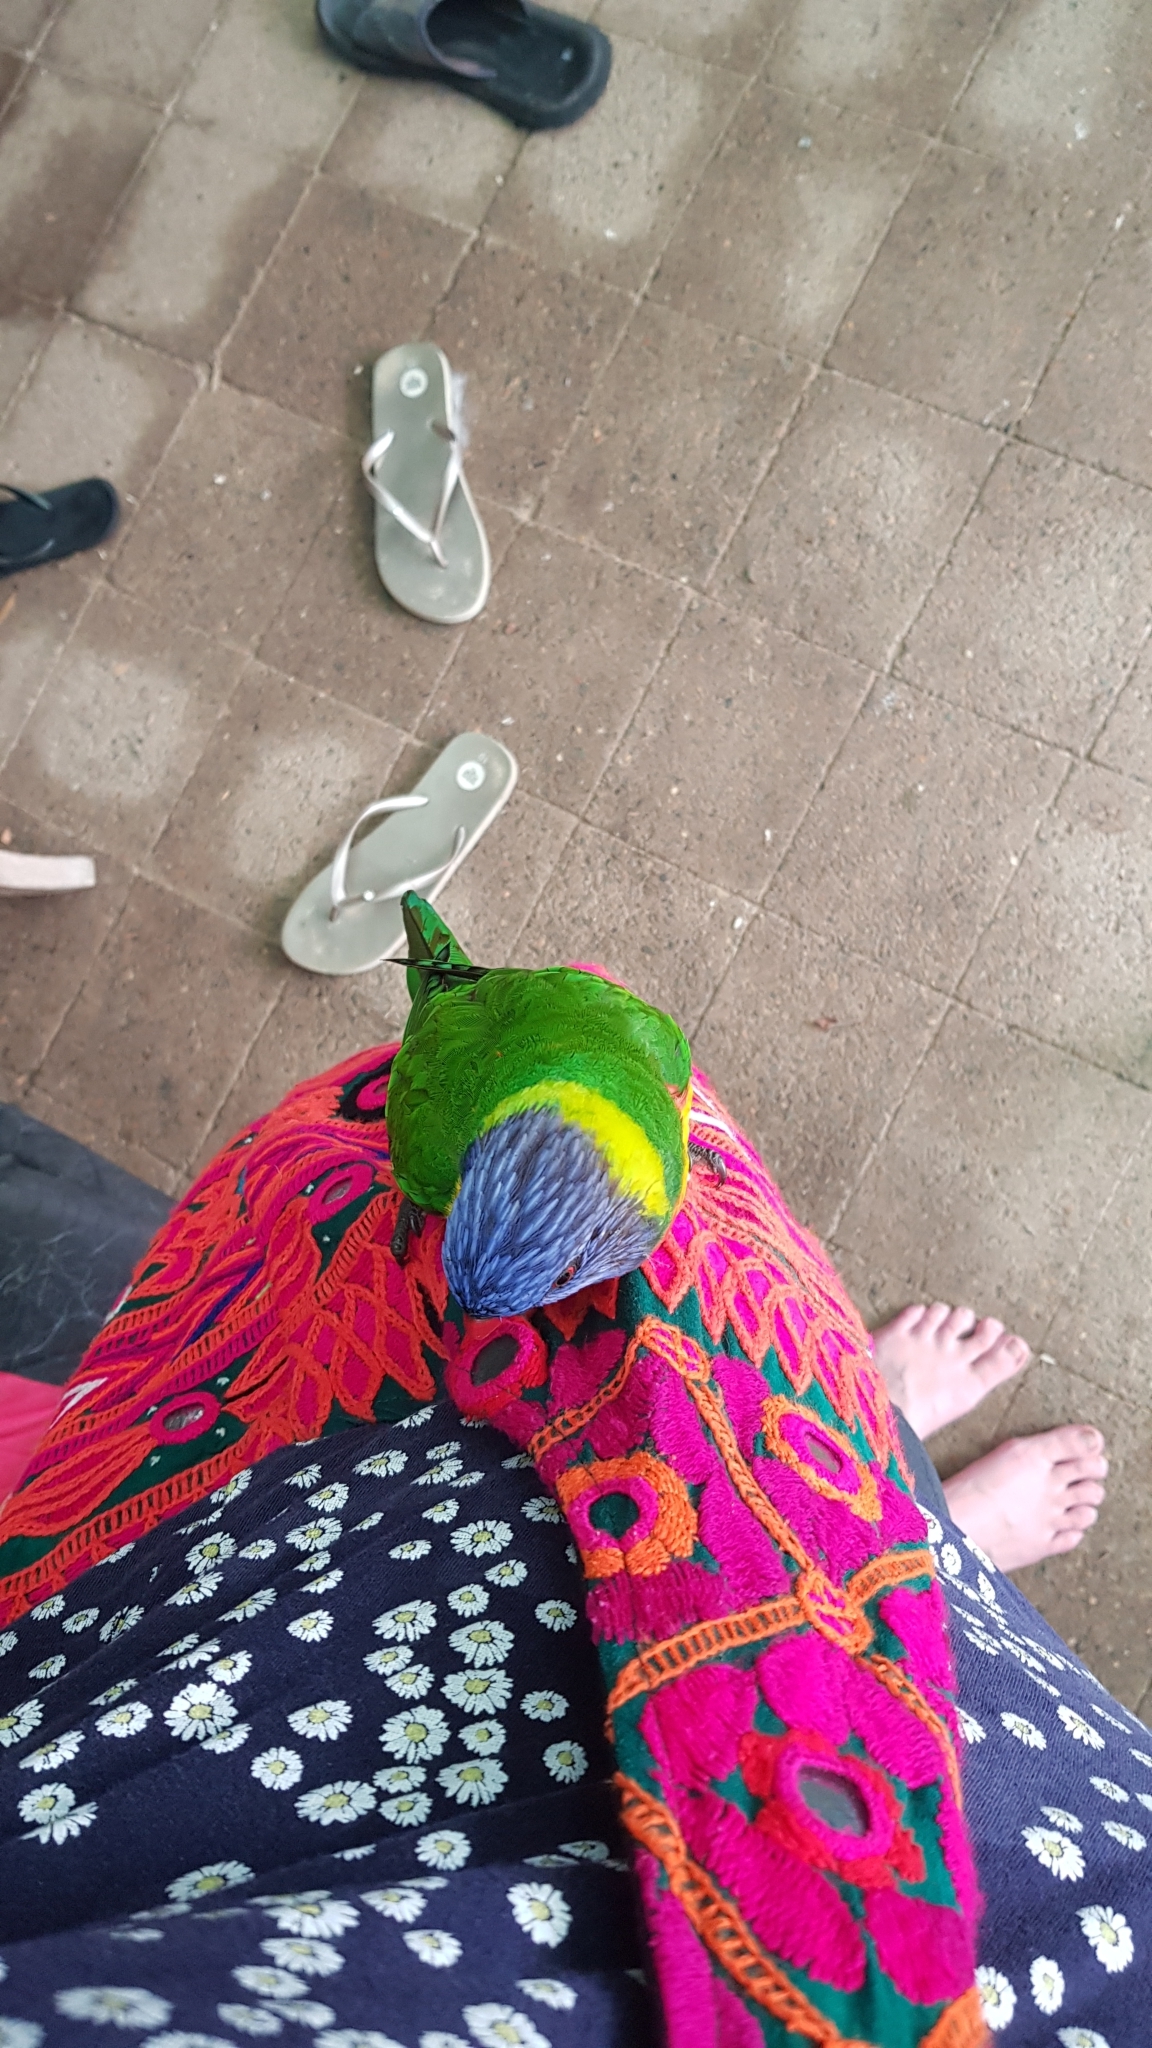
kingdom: Animalia
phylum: Chordata
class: Aves
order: Psittaciformes
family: Psittacidae
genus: Trichoglossus
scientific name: Trichoglossus haematodus
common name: Coconut lorikeet
